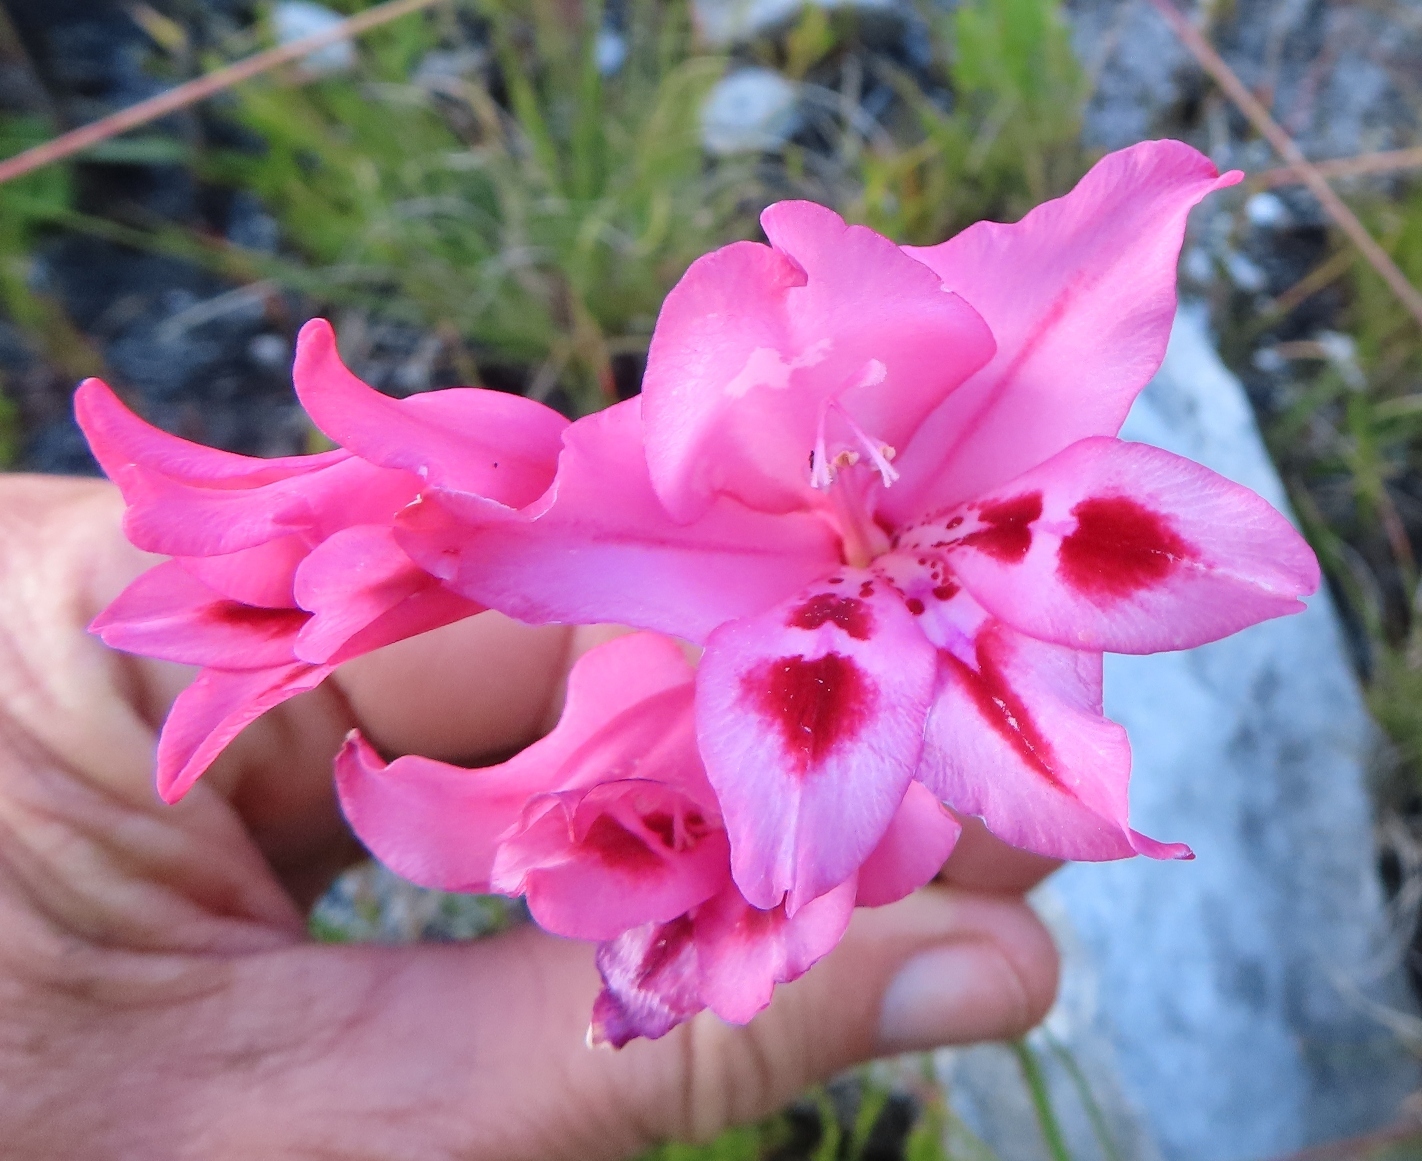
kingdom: Plantae
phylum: Tracheophyta
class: Liliopsida
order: Asparagales
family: Iridaceae
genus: Gladiolus
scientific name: Gladiolus crispulatus
